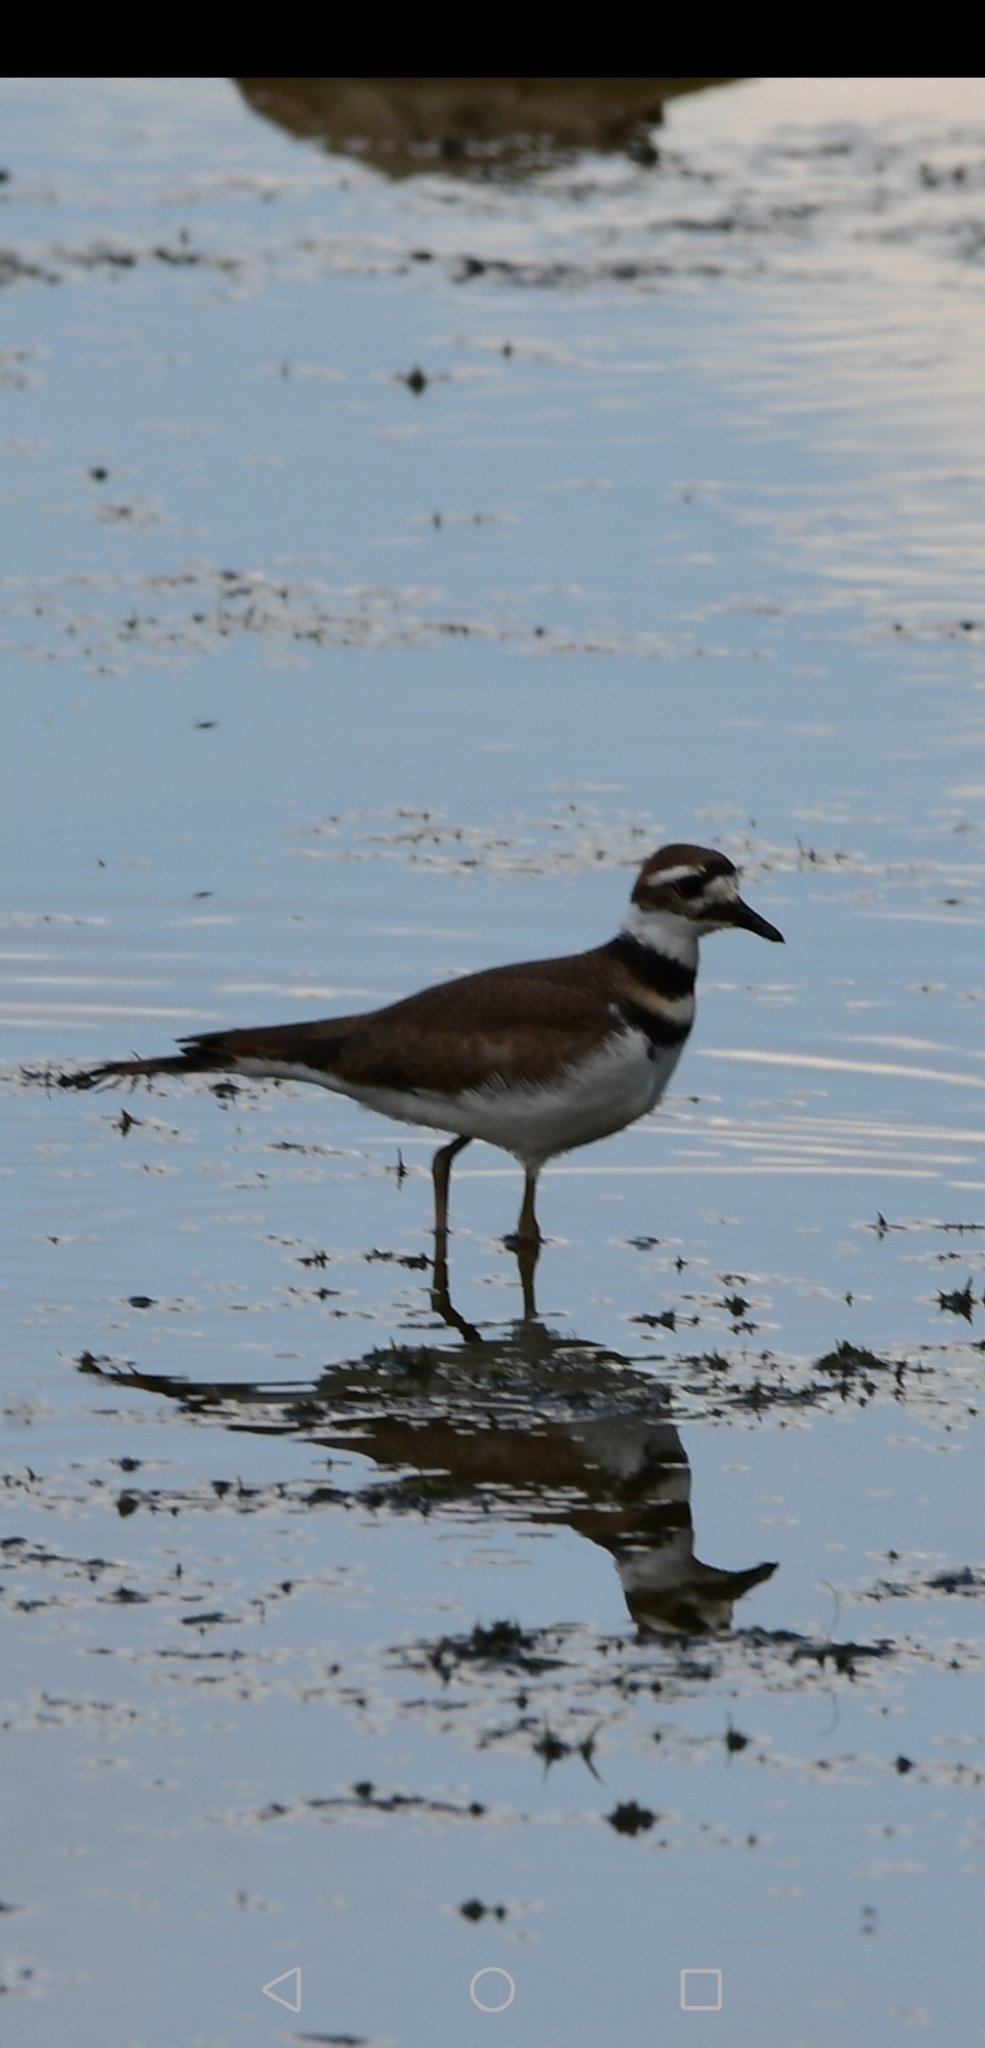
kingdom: Animalia
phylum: Chordata
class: Aves
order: Charadriiformes
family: Charadriidae
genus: Charadrius
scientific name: Charadrius vociferus
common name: Killdeer
